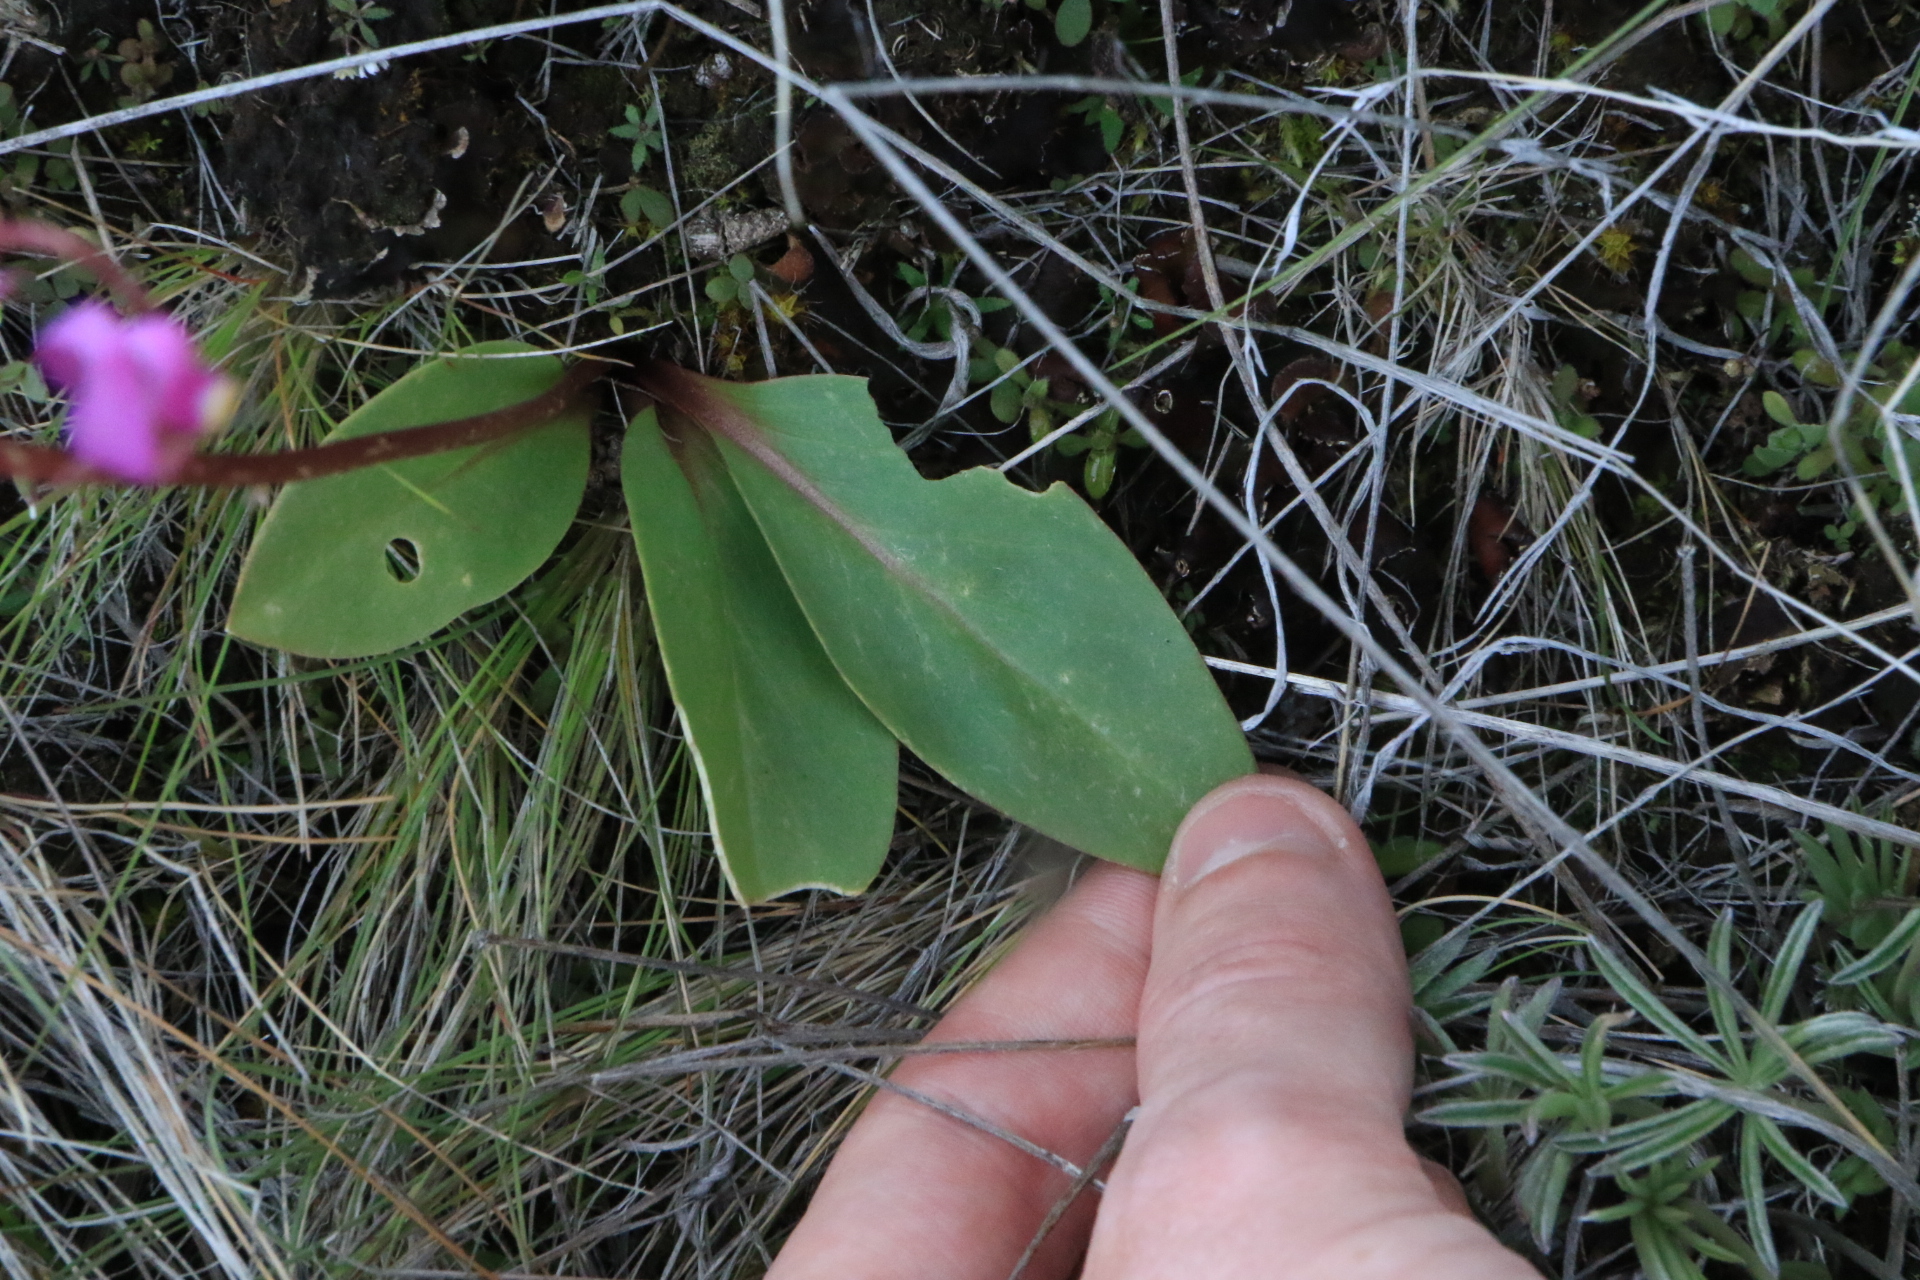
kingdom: Plantae
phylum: Tracheophyta
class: Magnoliopsida
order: Ericales
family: Primulaceae
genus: Dodecatheon
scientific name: Dodecatheon conjugens
